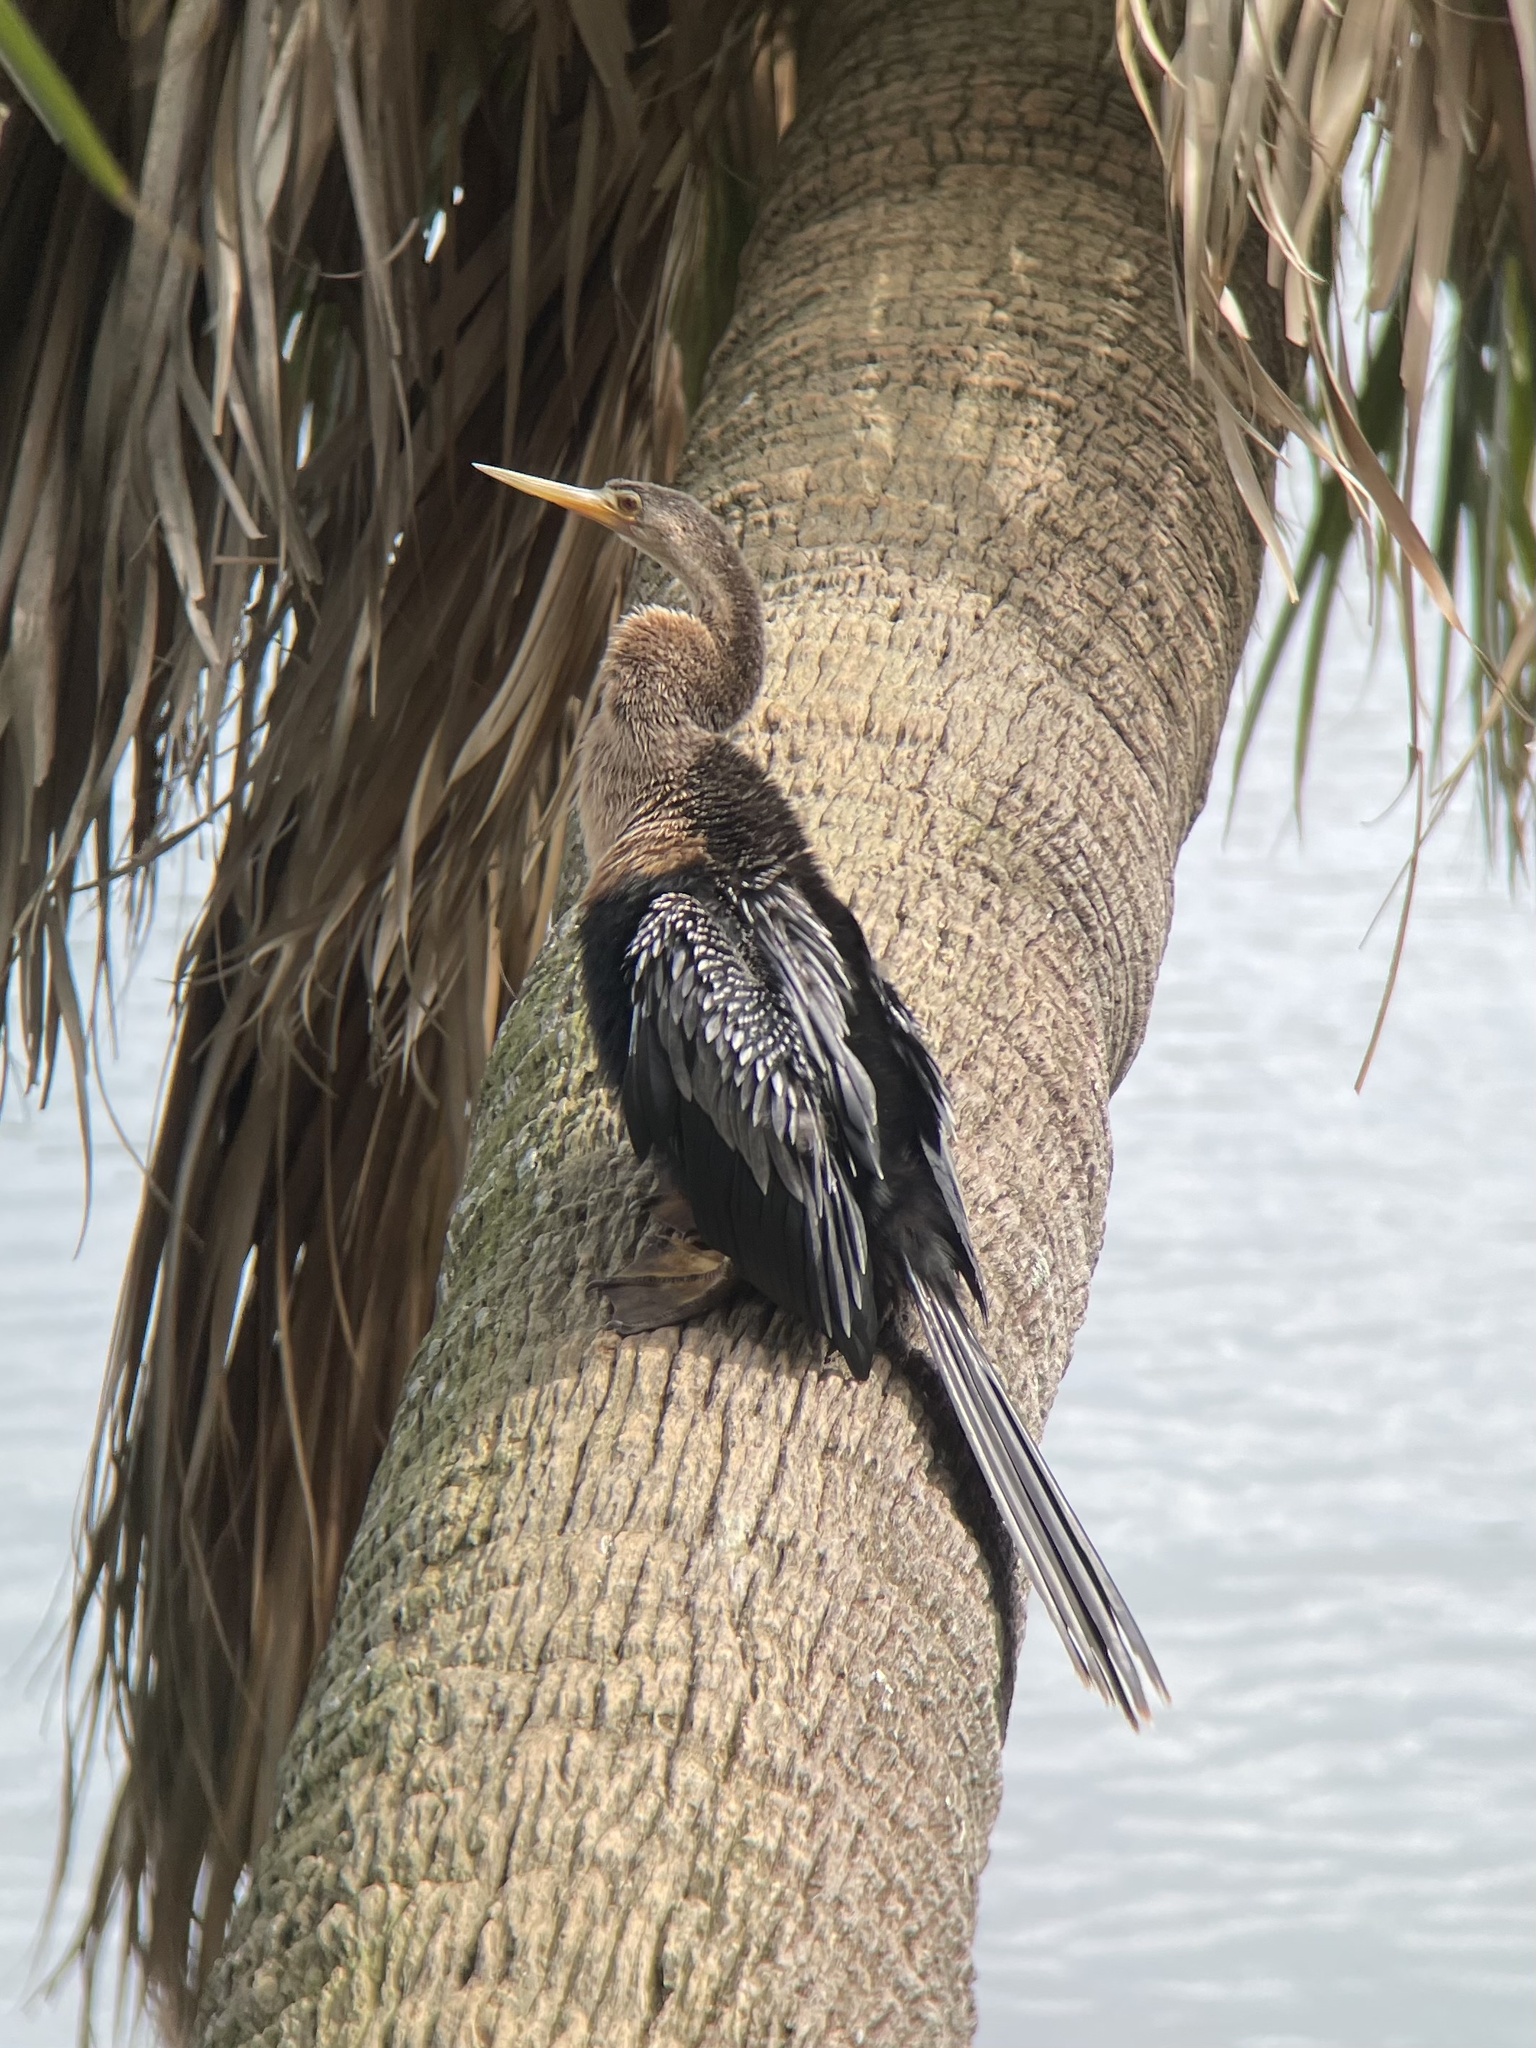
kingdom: Animalia
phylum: Chordata
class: Aves
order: Suliformes
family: Anhingidae
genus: Anhinga
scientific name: Anhinga anhinga
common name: Anhinga
